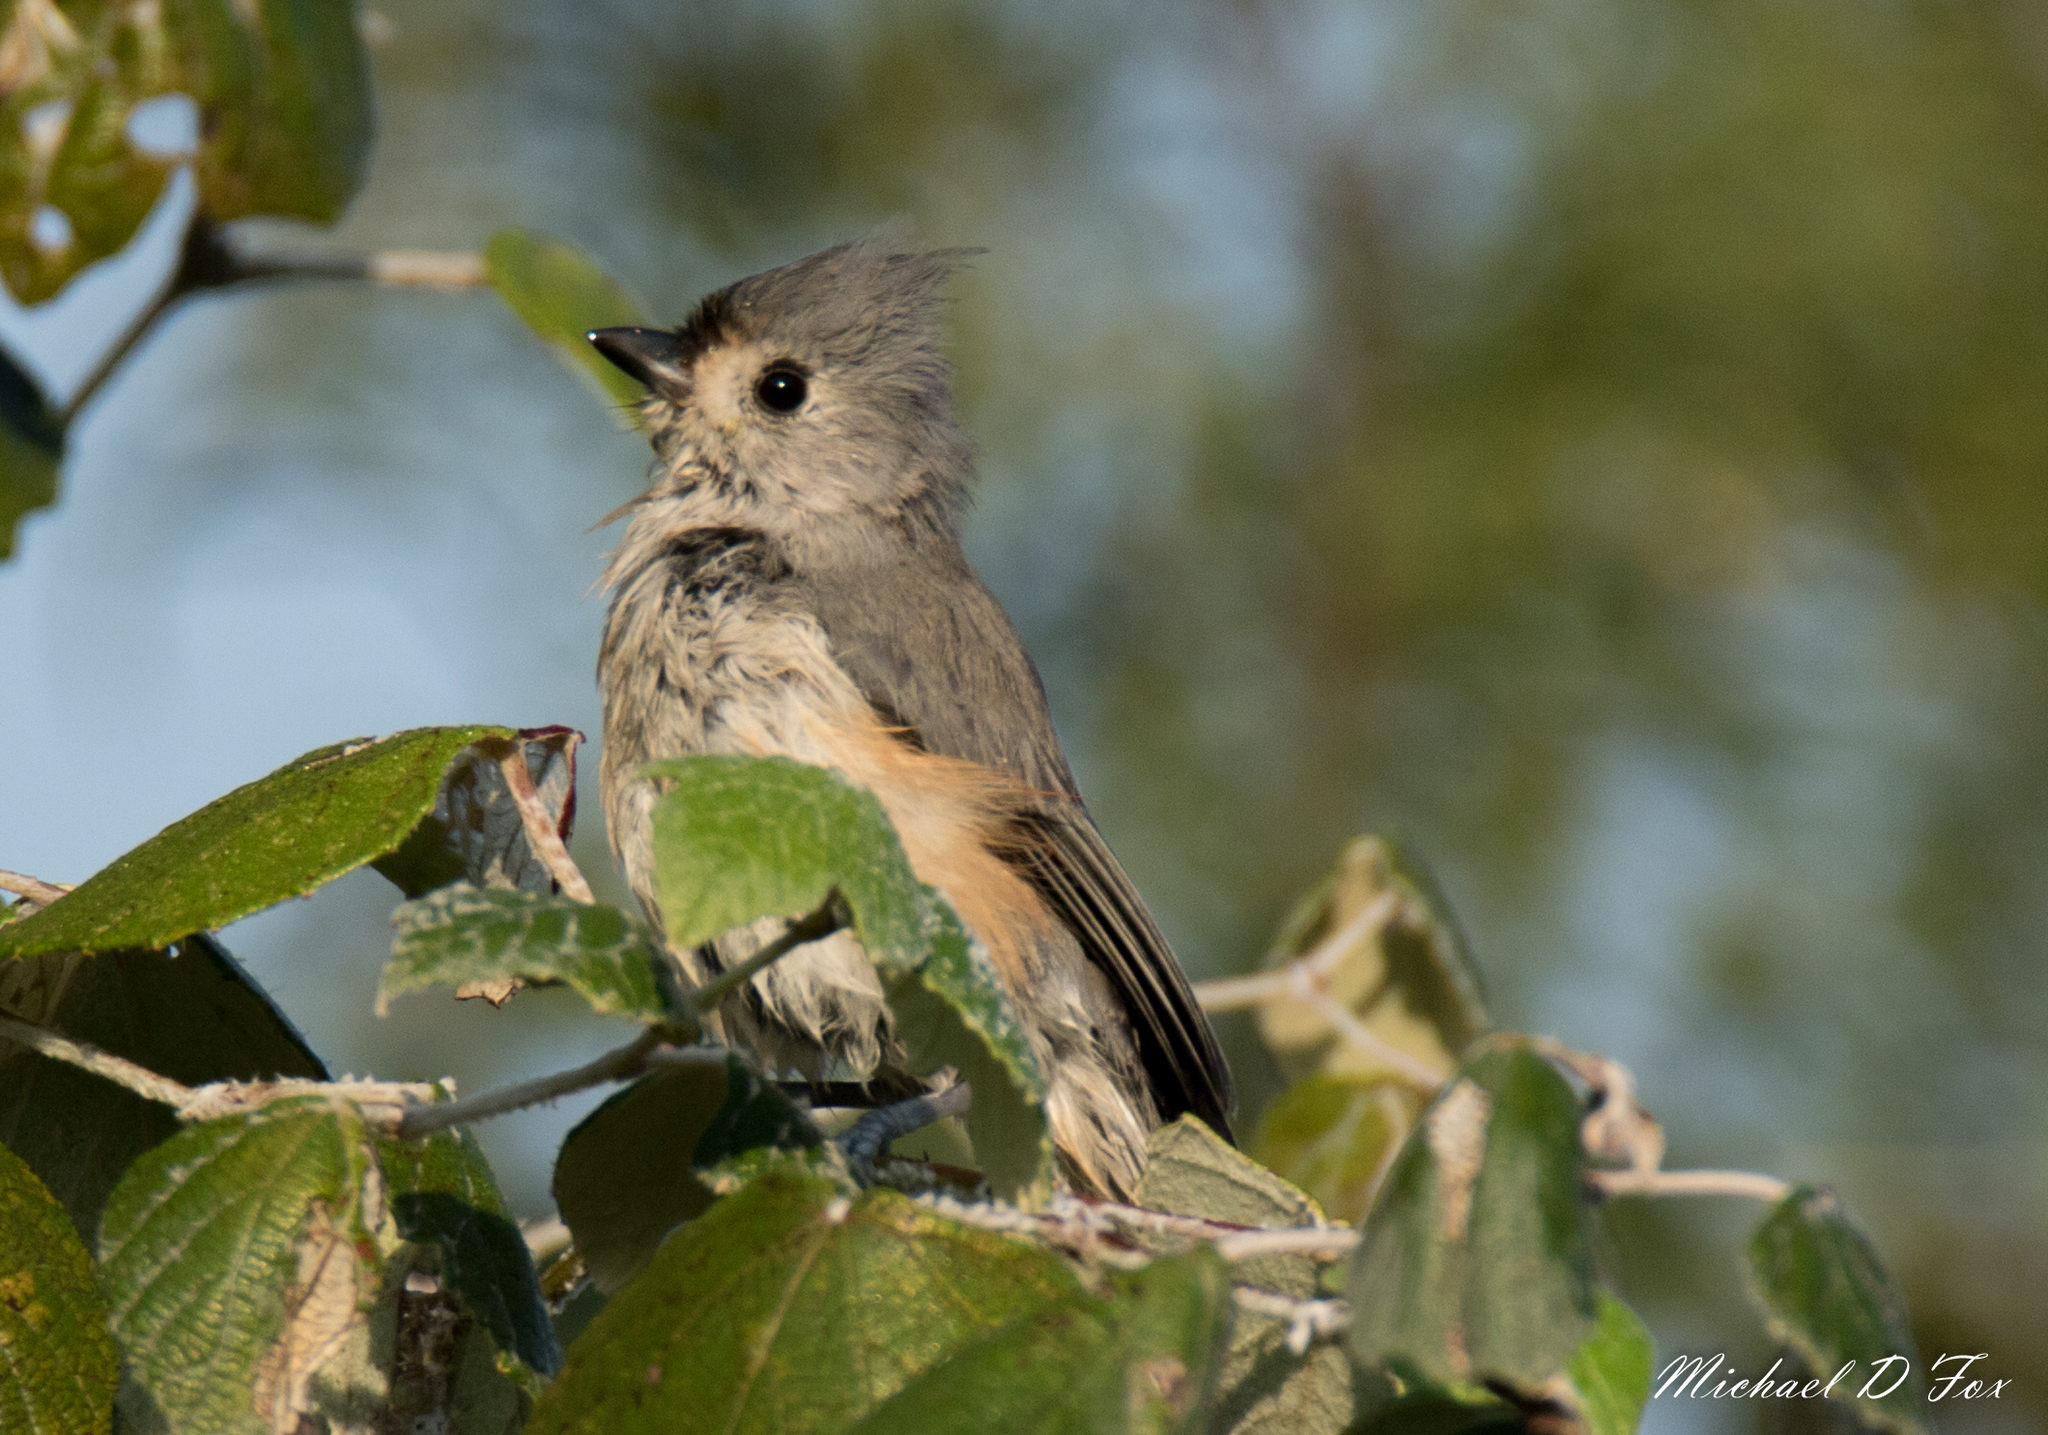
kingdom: Animalia
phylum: Chordata
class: Aves
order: Passeriformes
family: Paridae
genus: Baeolophus
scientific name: Baeolophus bicolor
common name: Tufted titmouse
